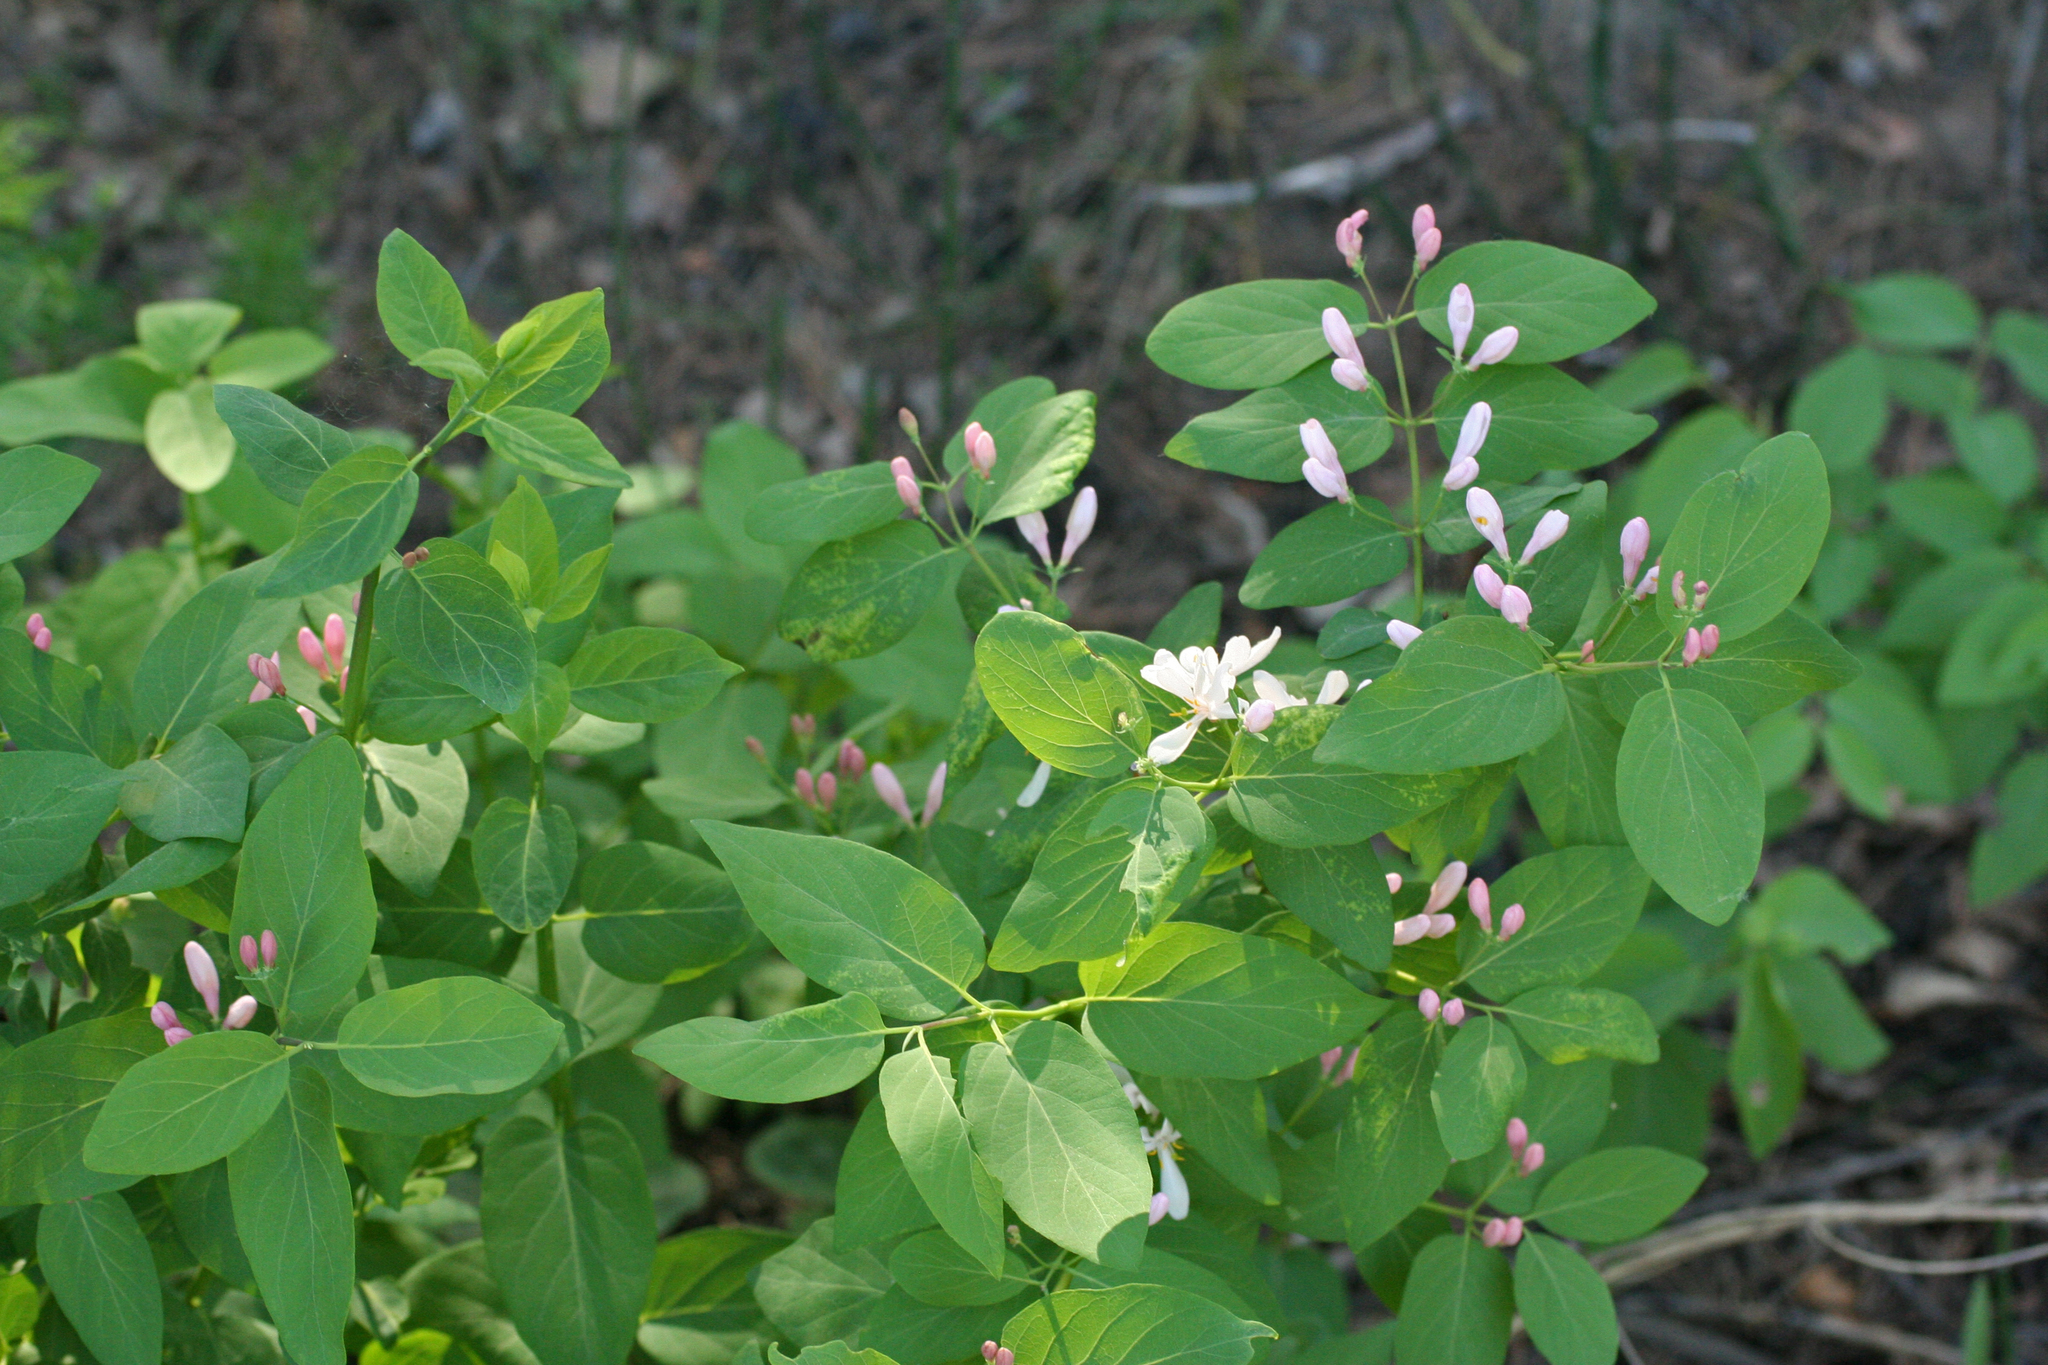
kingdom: Plantae
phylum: Tracheophyta
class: Magnoliopsida
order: Dipsacales
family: Caprifoliaceae
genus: Lonicera
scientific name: Lonicera tatarica
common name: Tatarian honeysuckle
